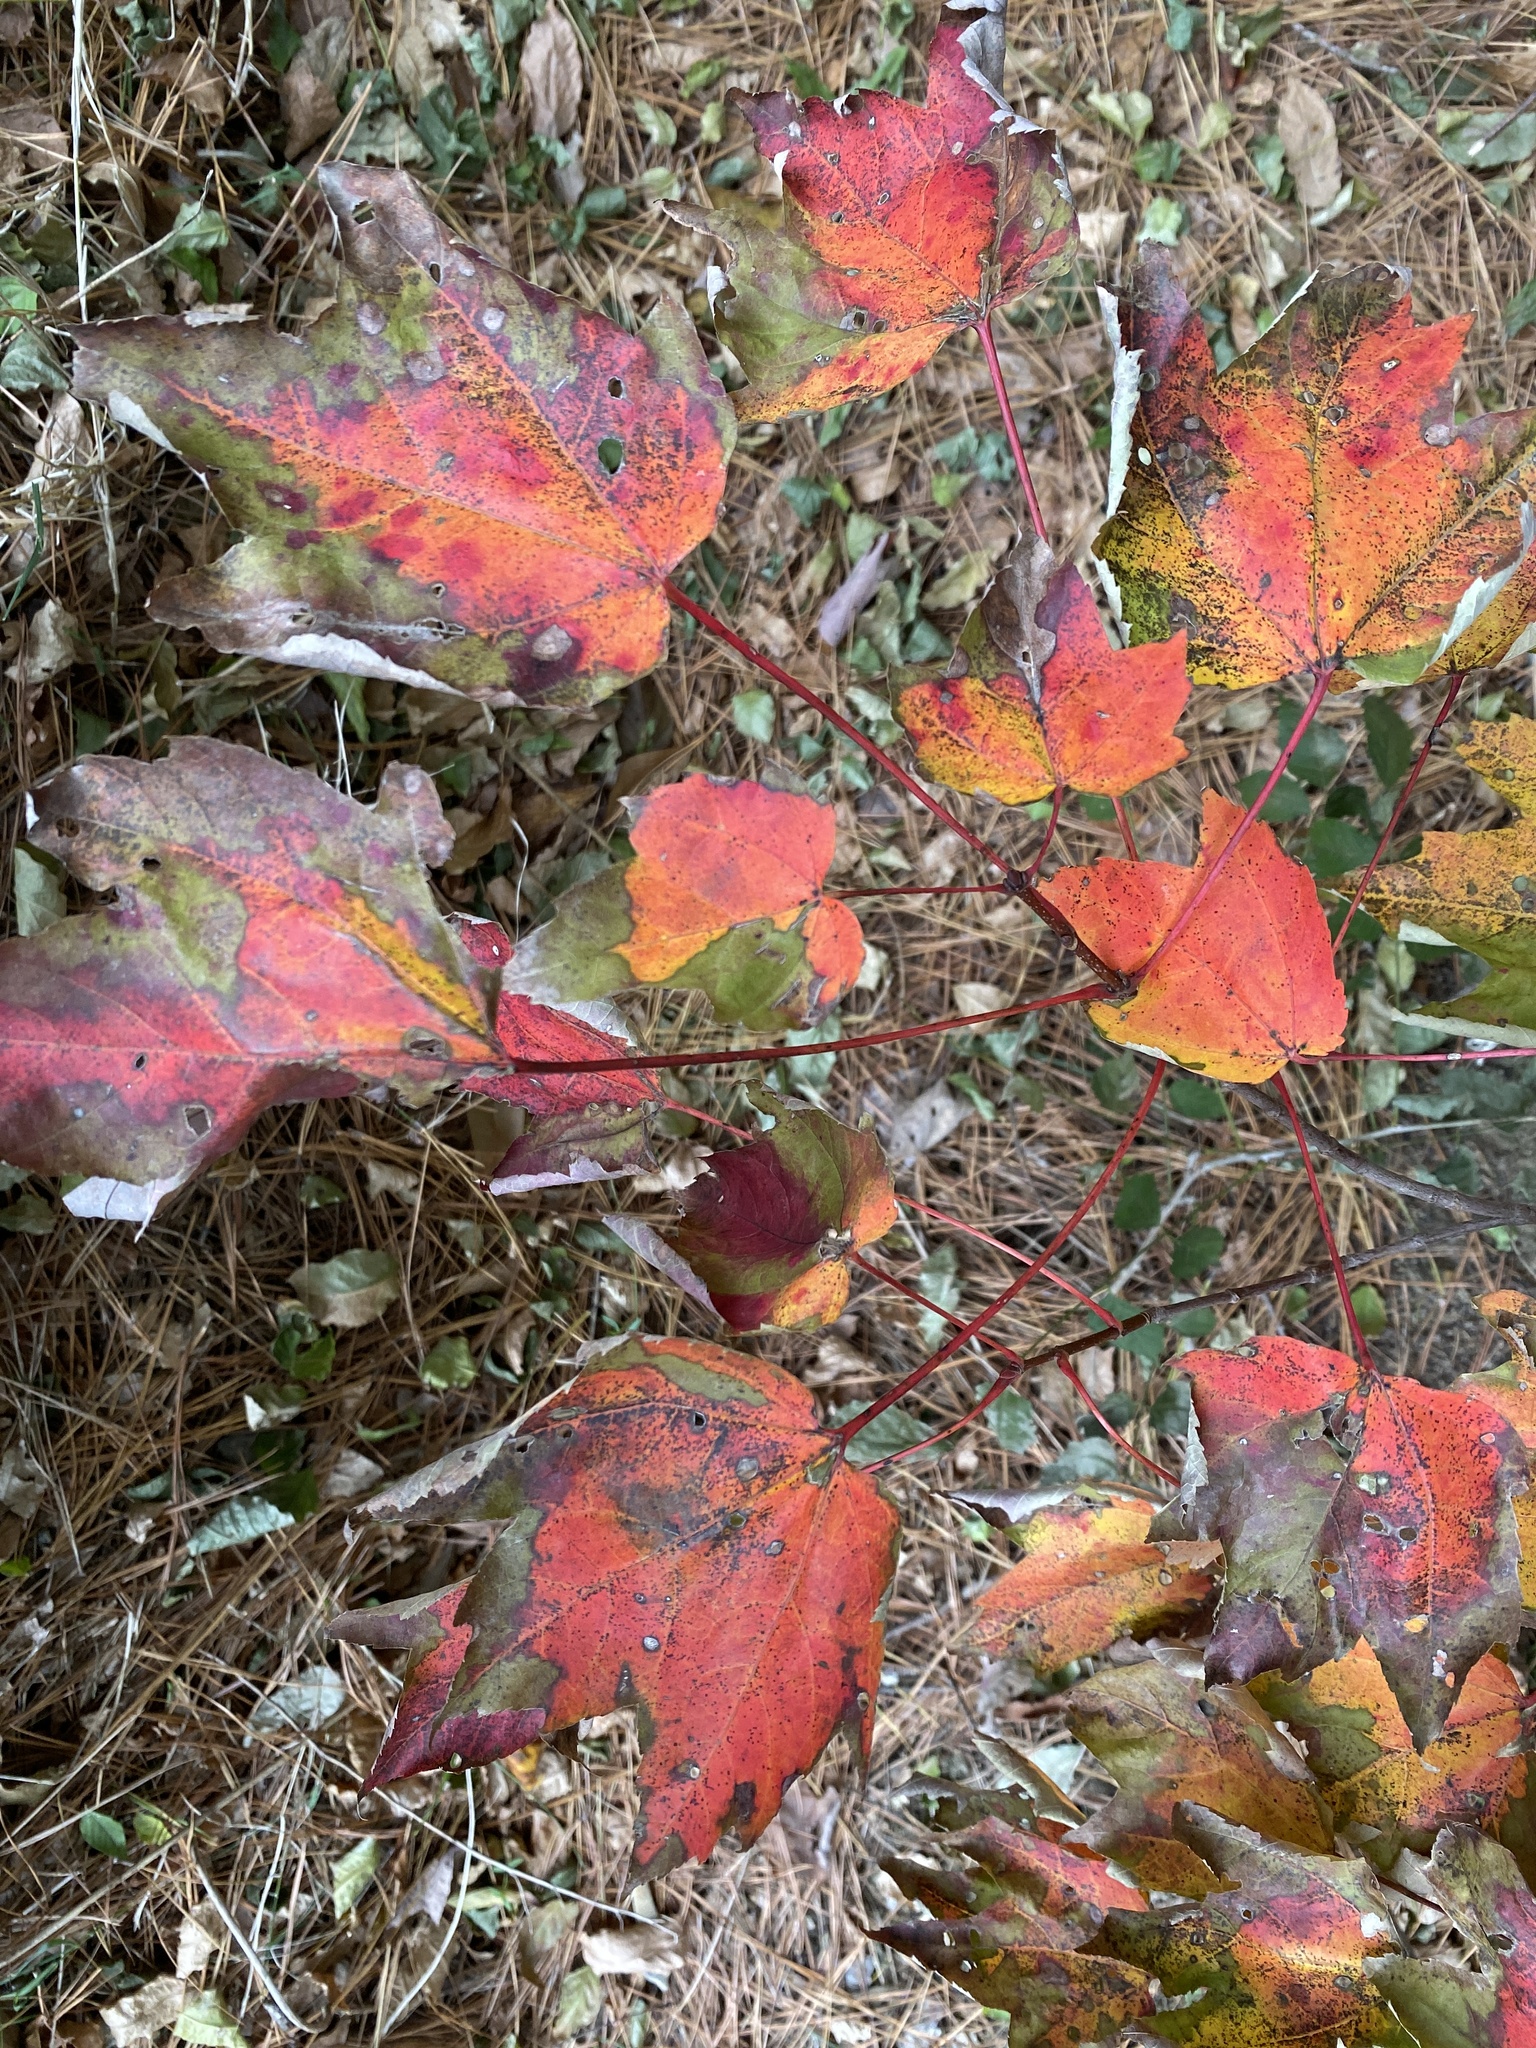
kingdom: Plantae
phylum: Tracheophyta
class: Magnoliopsida
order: Sapindales
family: Sapindaceae
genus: Acer
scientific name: Acer rubrum
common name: Red maple
